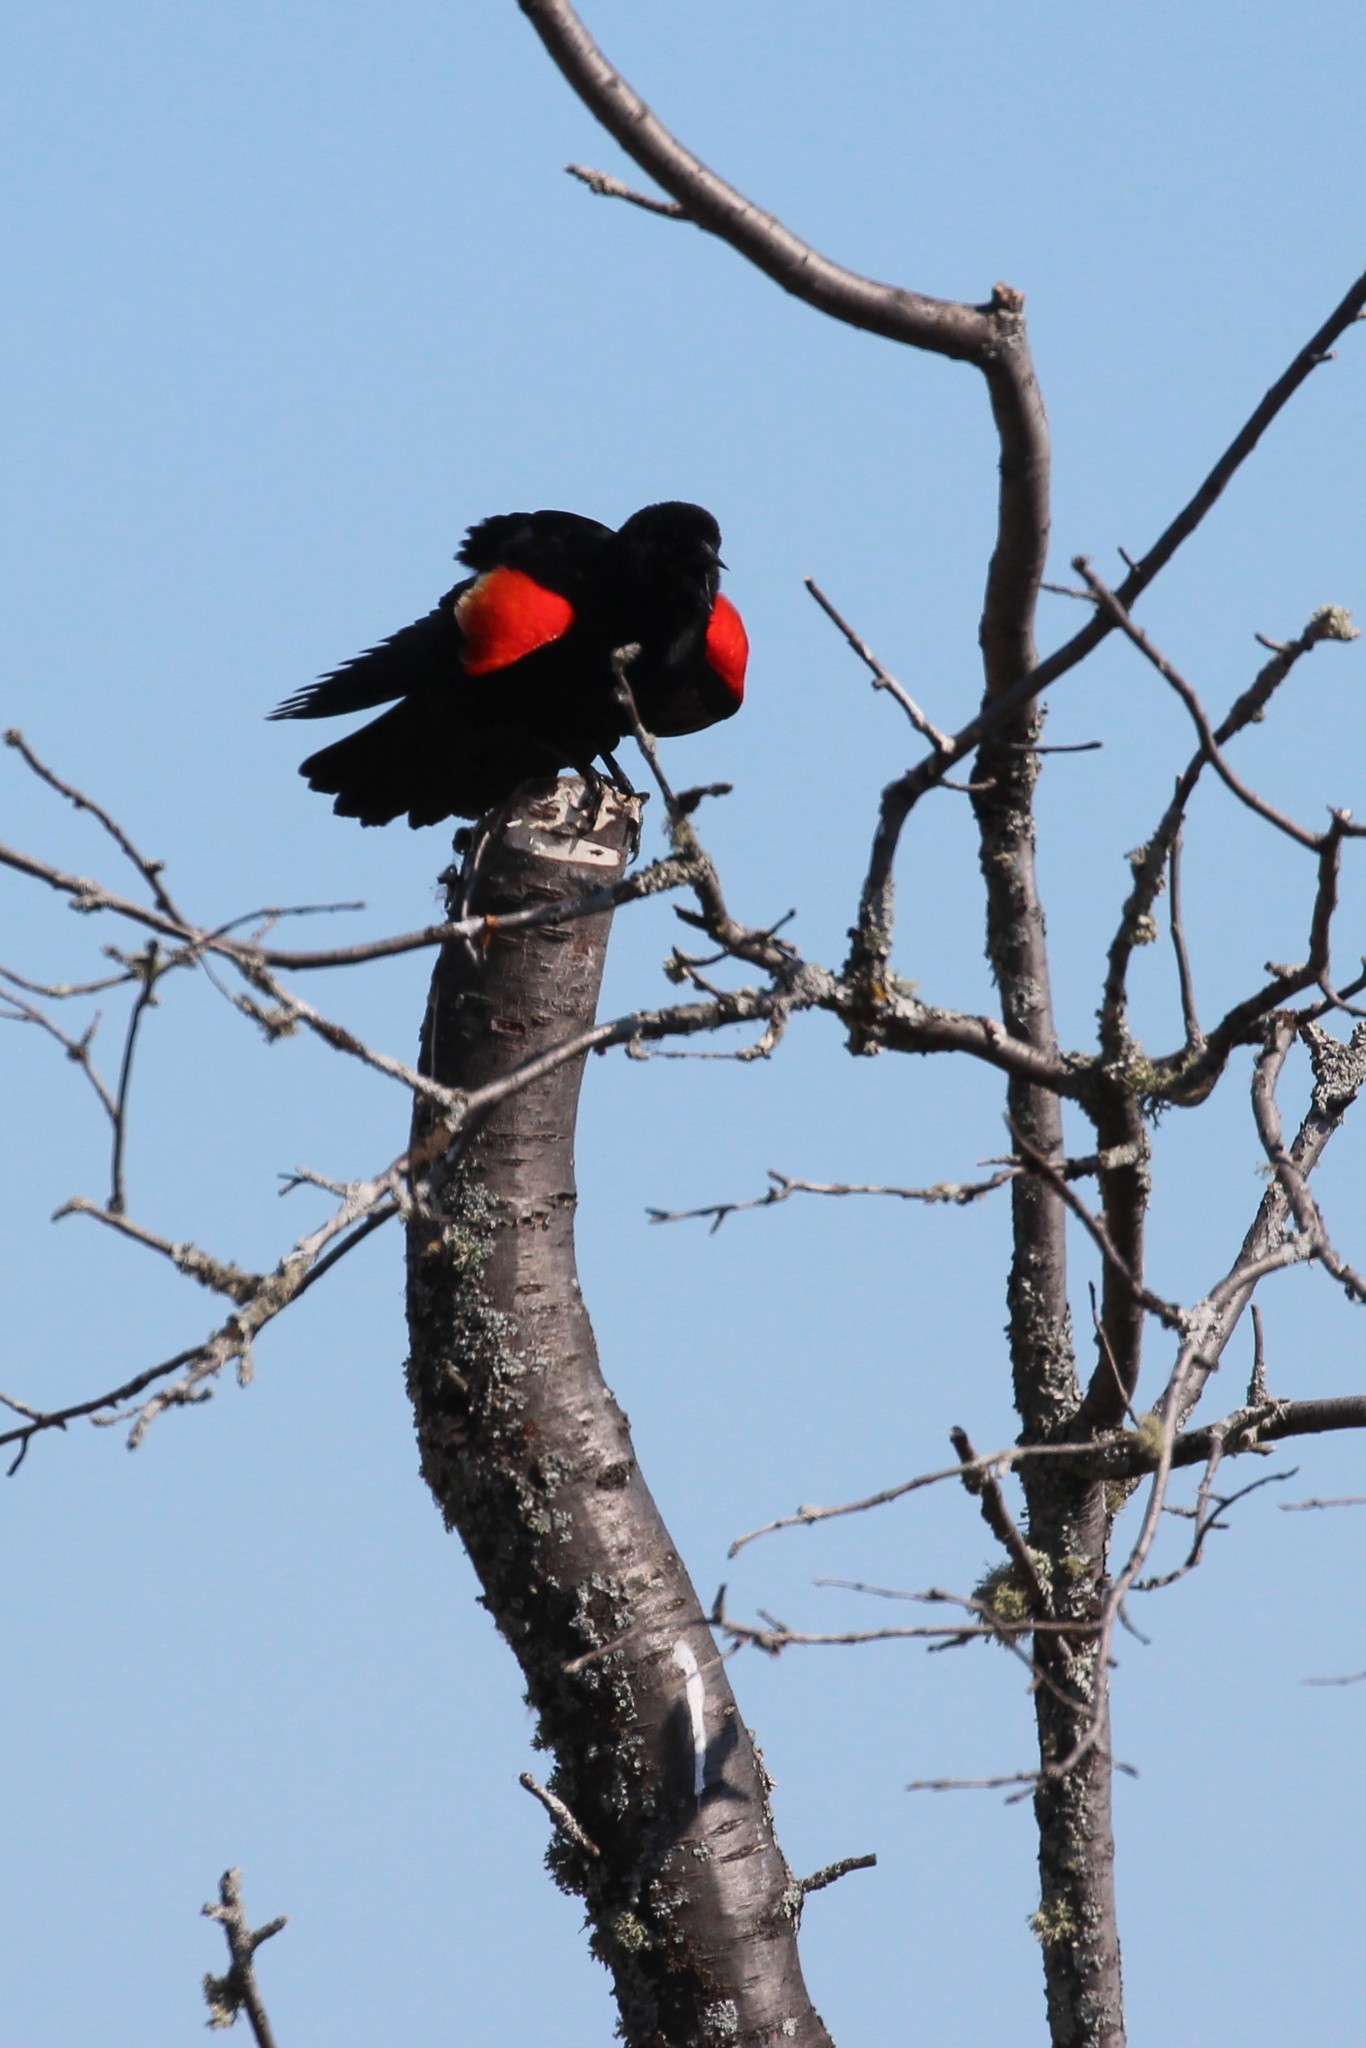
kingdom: Animalia
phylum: Chordata
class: Aves
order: Passeriformes
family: Icteridae
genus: Agelaius
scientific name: Agelaius phoeniceus
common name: Red-winged blackbird
